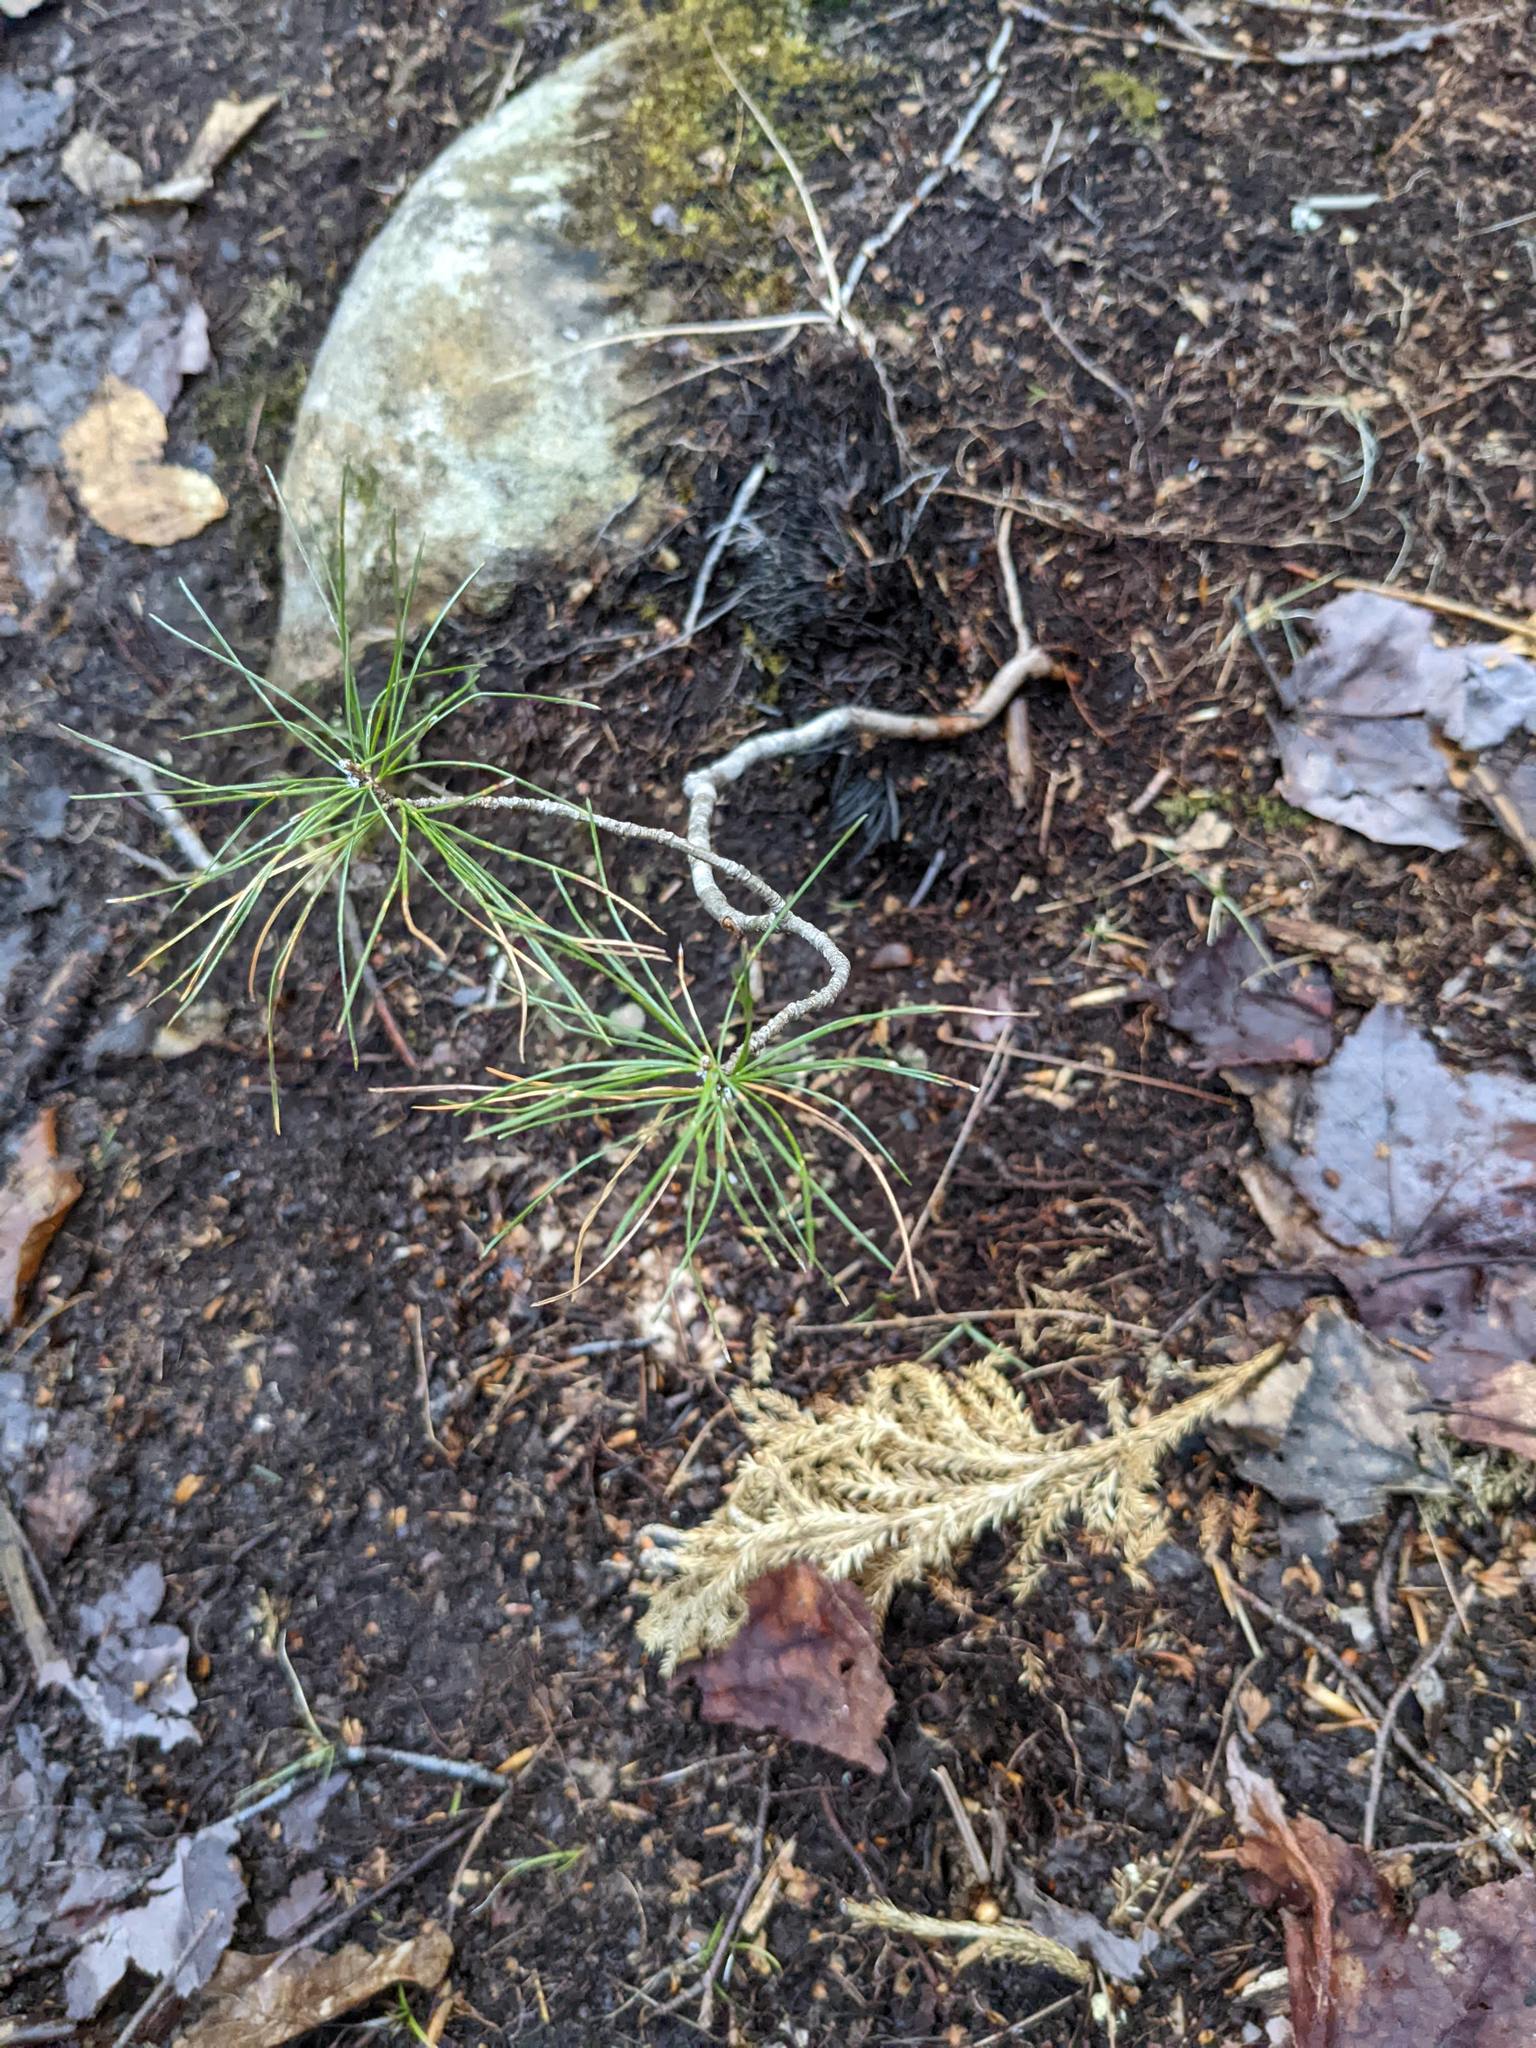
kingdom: Plantae
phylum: Tracheophyta
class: Pinopsida
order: Pinales
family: Pinaceae
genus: Pinus
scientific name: Pinus strobus
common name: Weymouth pine
